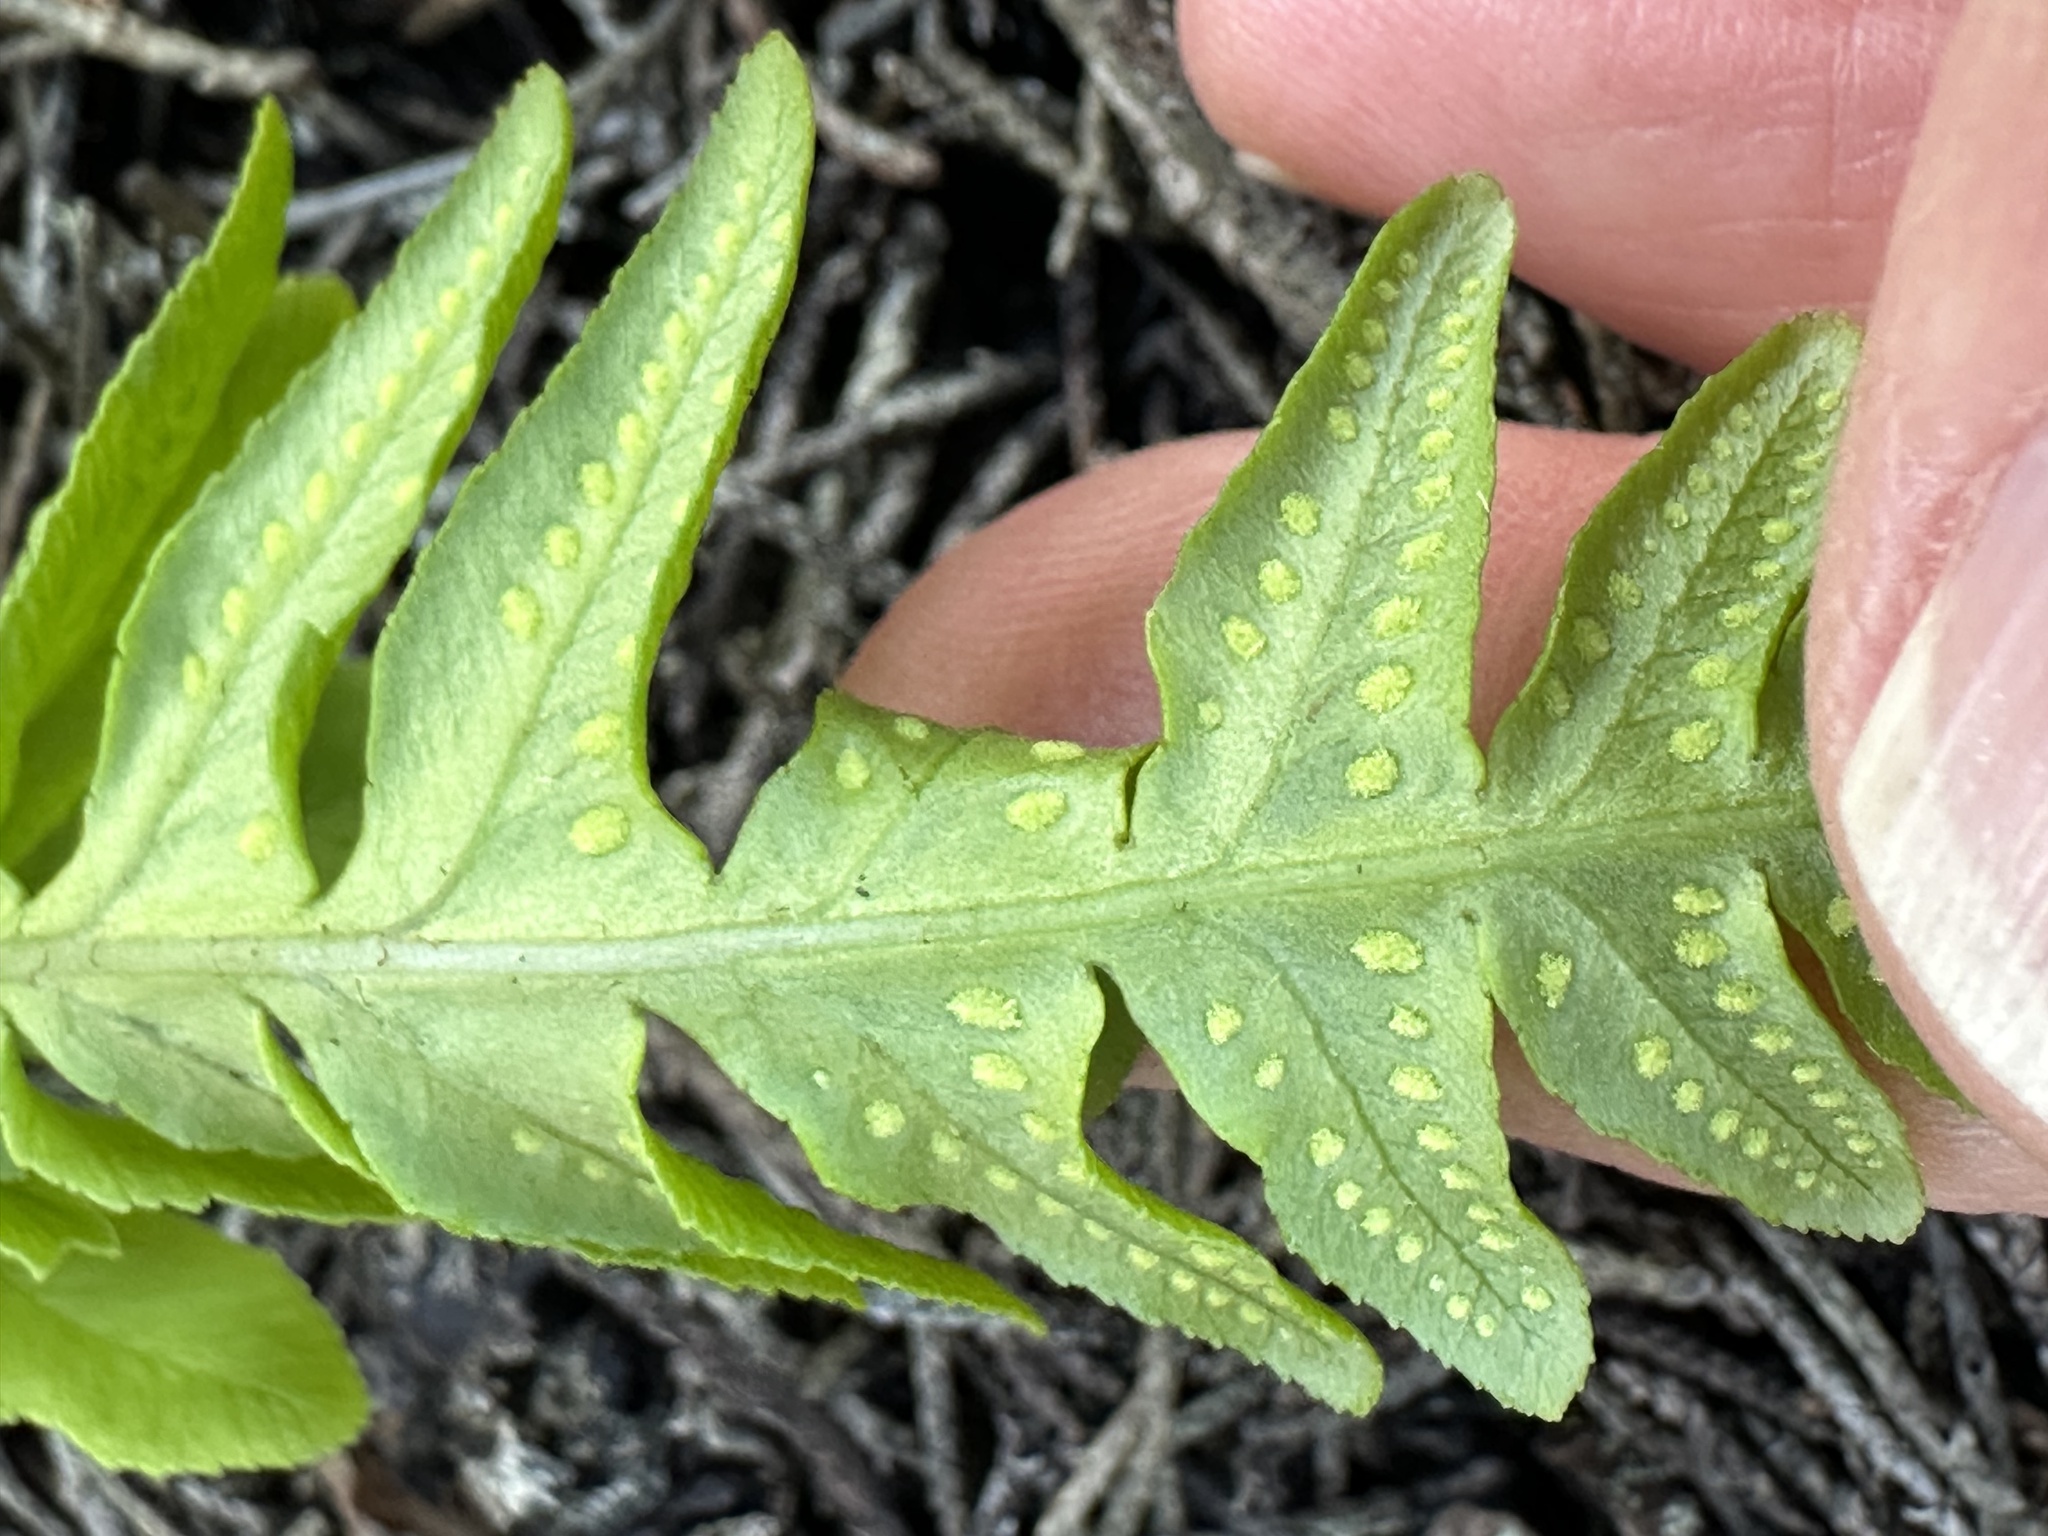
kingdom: Plantae
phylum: Tracheophyta
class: Polypodiopsida
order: Polypodiales
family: Polypodiaceae
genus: Polypodium
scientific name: Polypodium californicum
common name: California polypody
